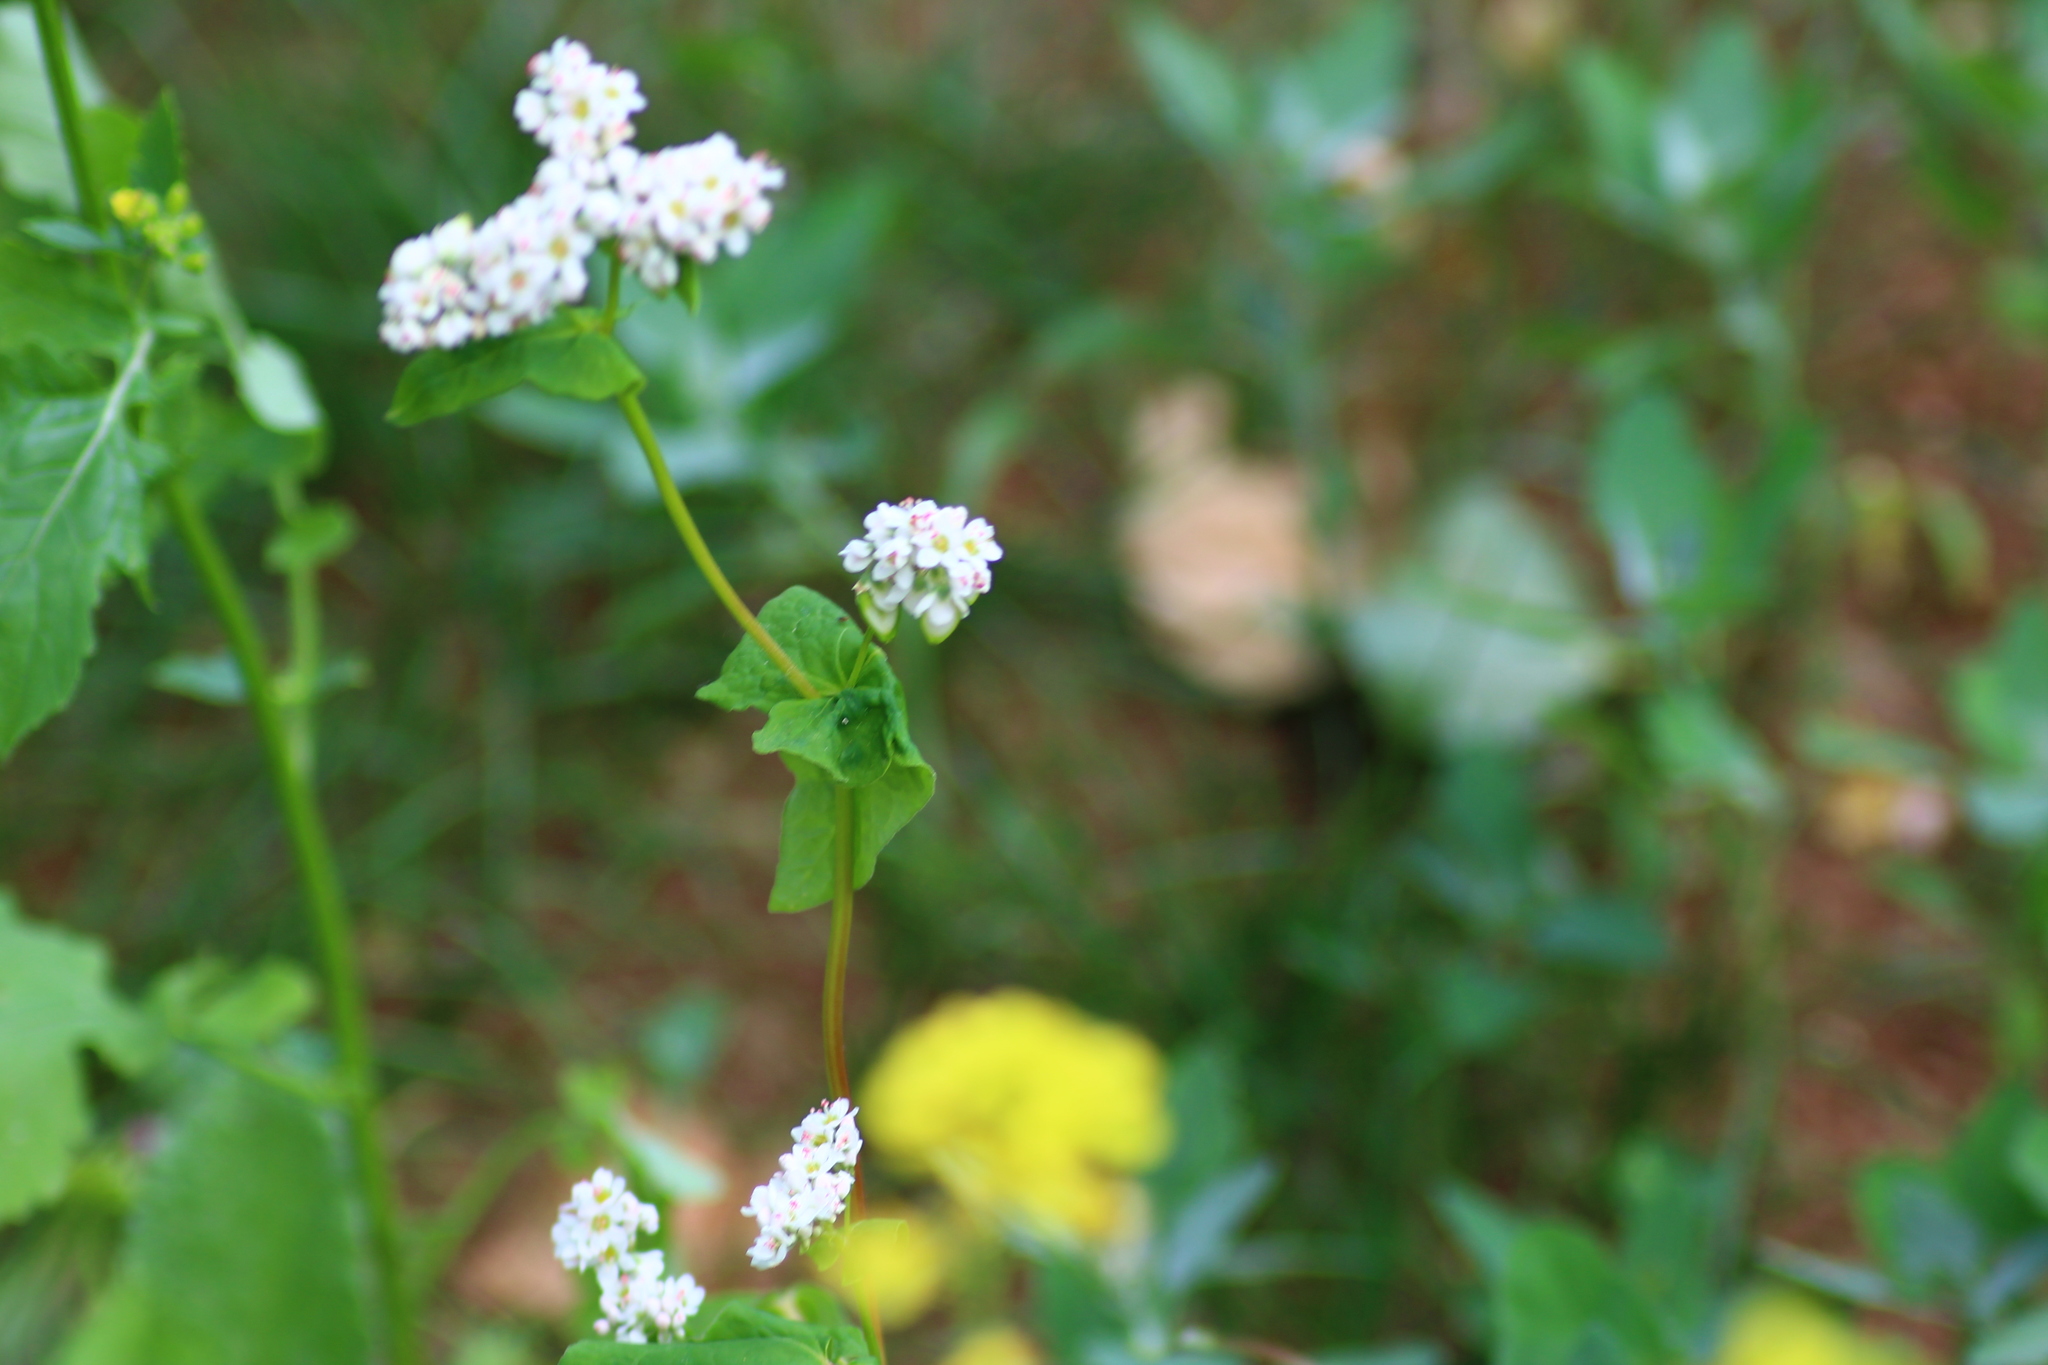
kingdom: Plantae
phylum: Tracheophyta
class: Magnoliopsida
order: Caryophyllales
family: Polygonaceae
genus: Fagopyrum
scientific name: Fagopyrum esculentum
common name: Buckwheat
